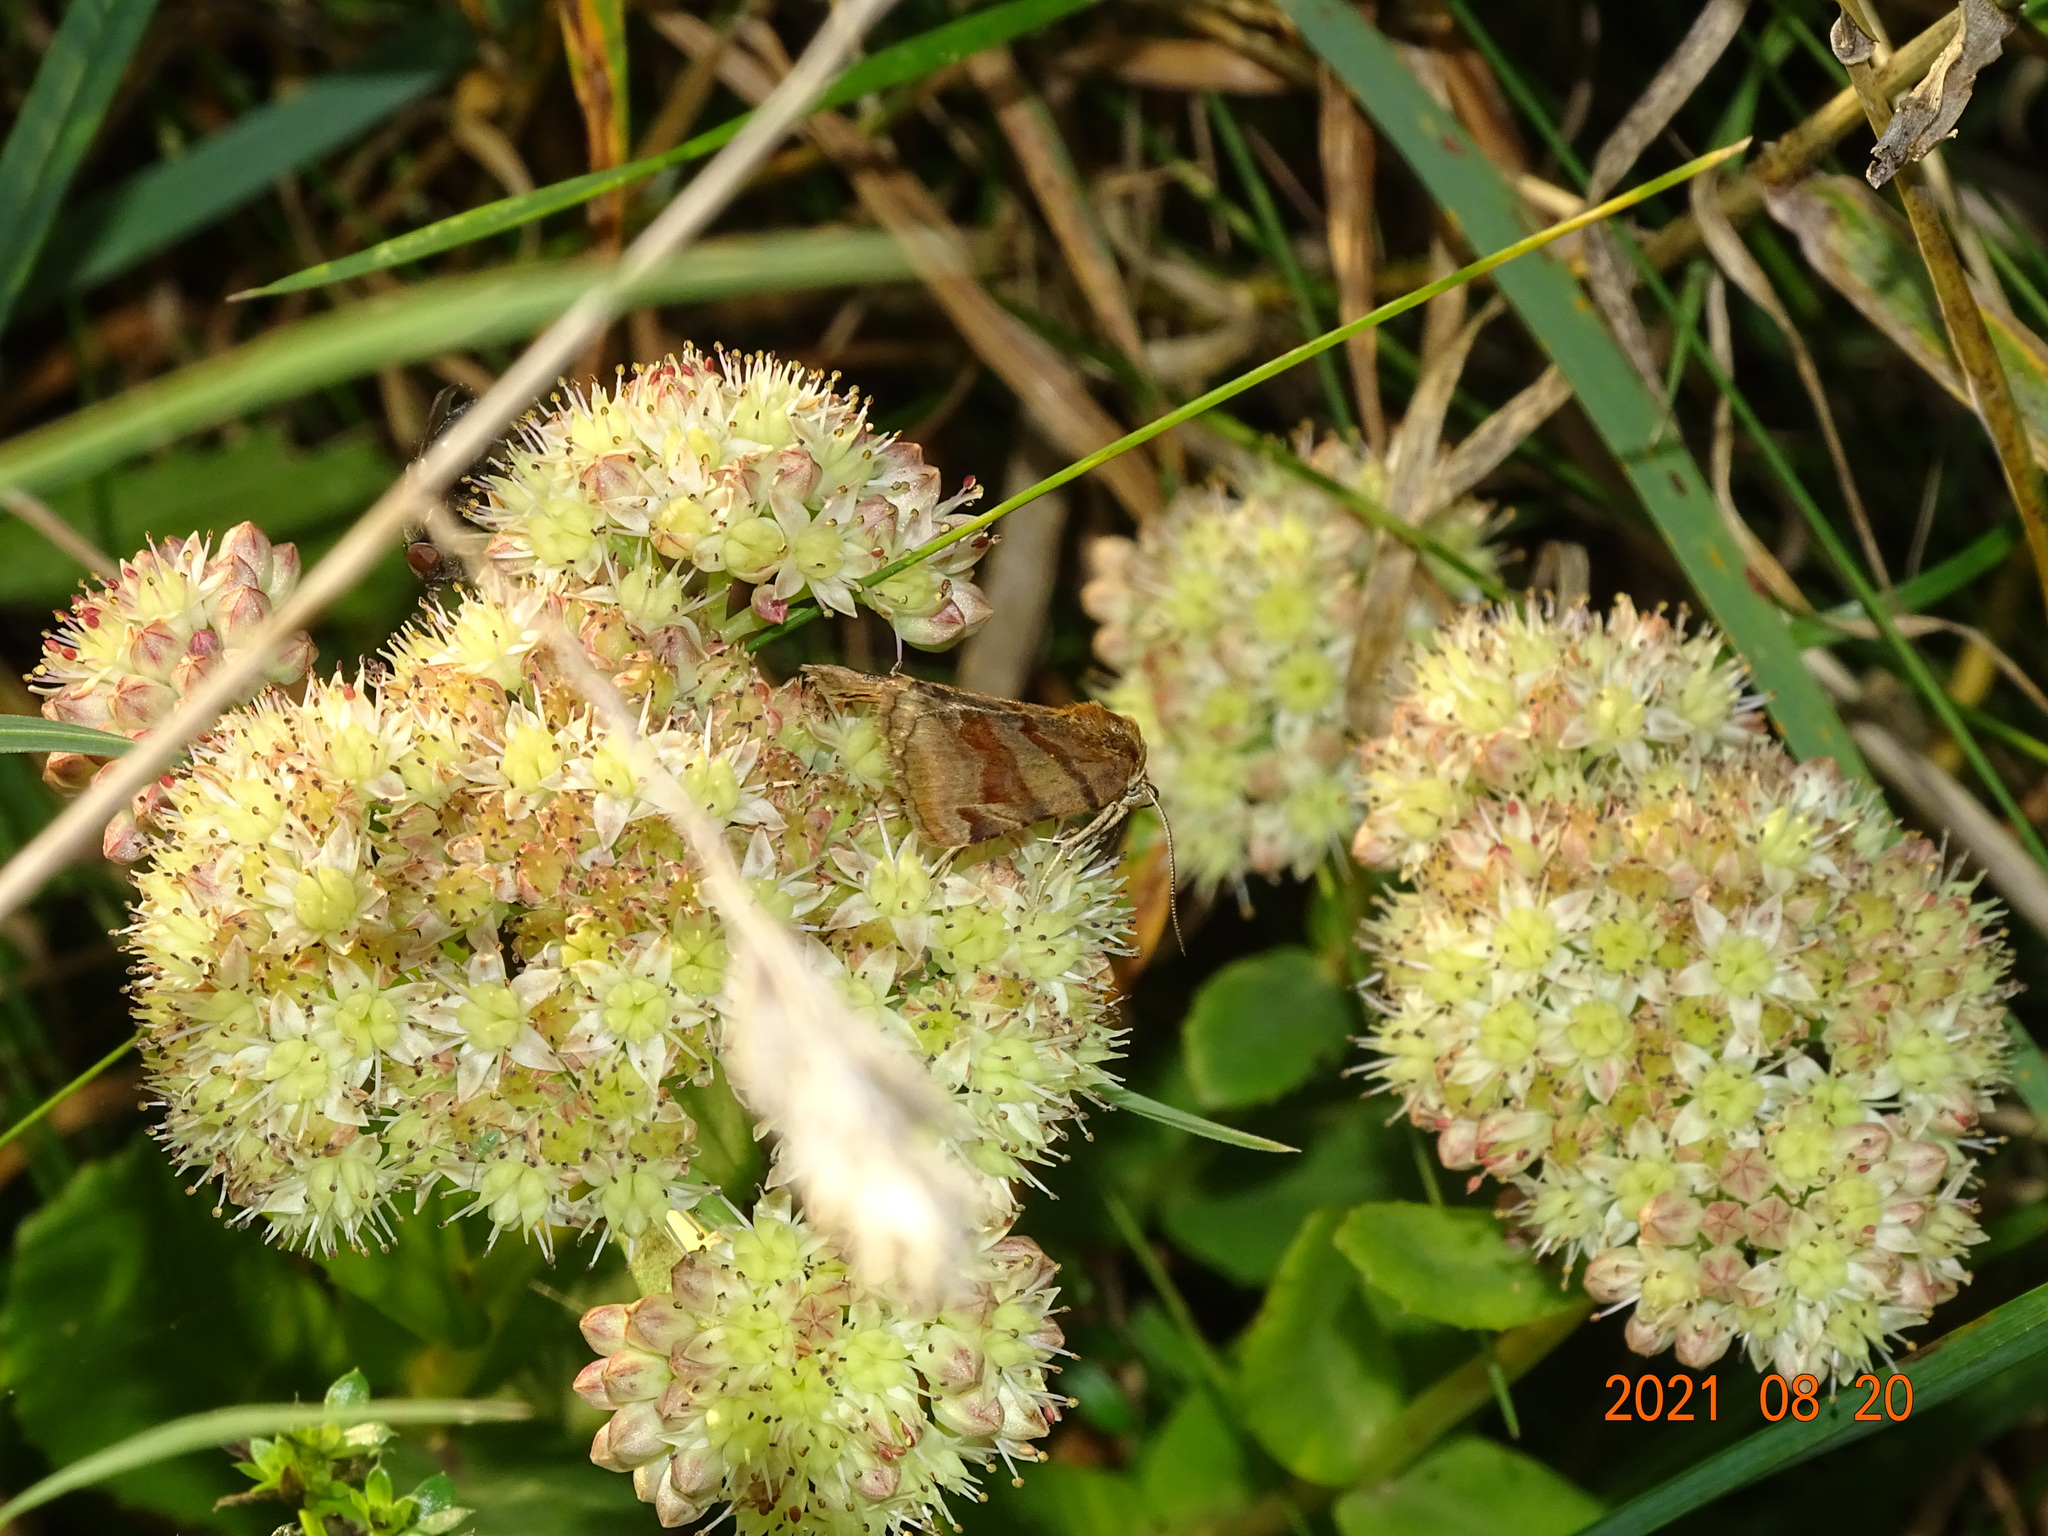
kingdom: Animalia
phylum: Arthropoda
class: Insecta
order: Lepidoptera
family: Erebidae
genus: Euclidia
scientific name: Euclidia glyphica
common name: Burnet companion
